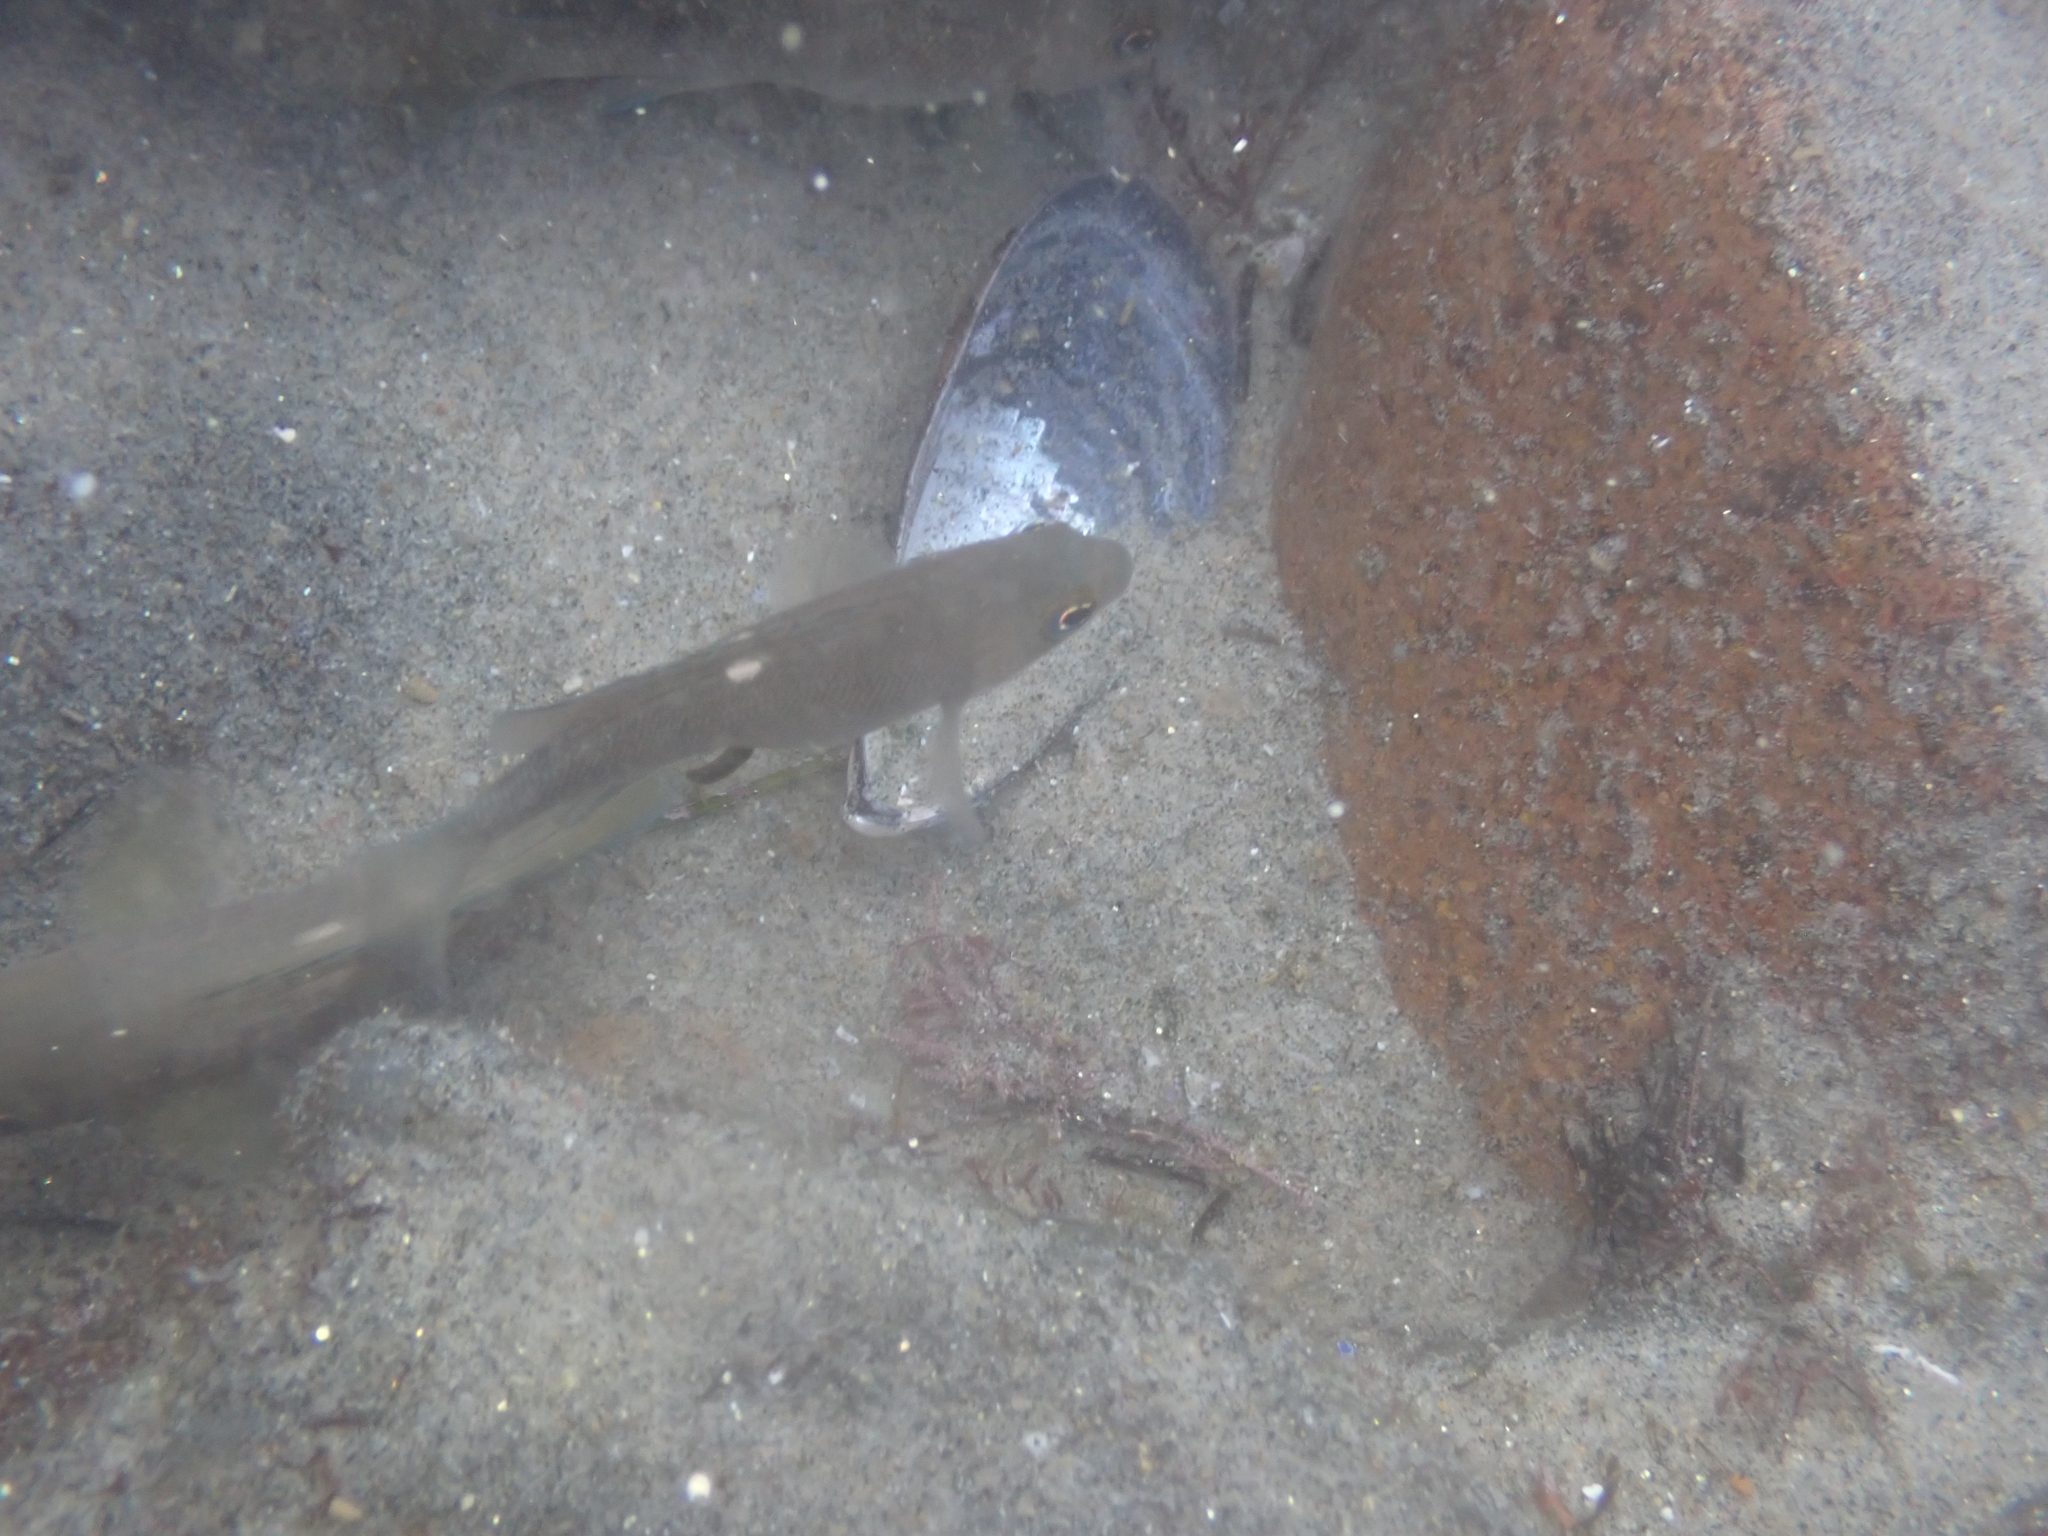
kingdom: Animalia
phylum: Chordata
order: Perciformes
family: Kyphosidae
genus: Girella
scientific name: Girella nigricans
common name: Opaleye
